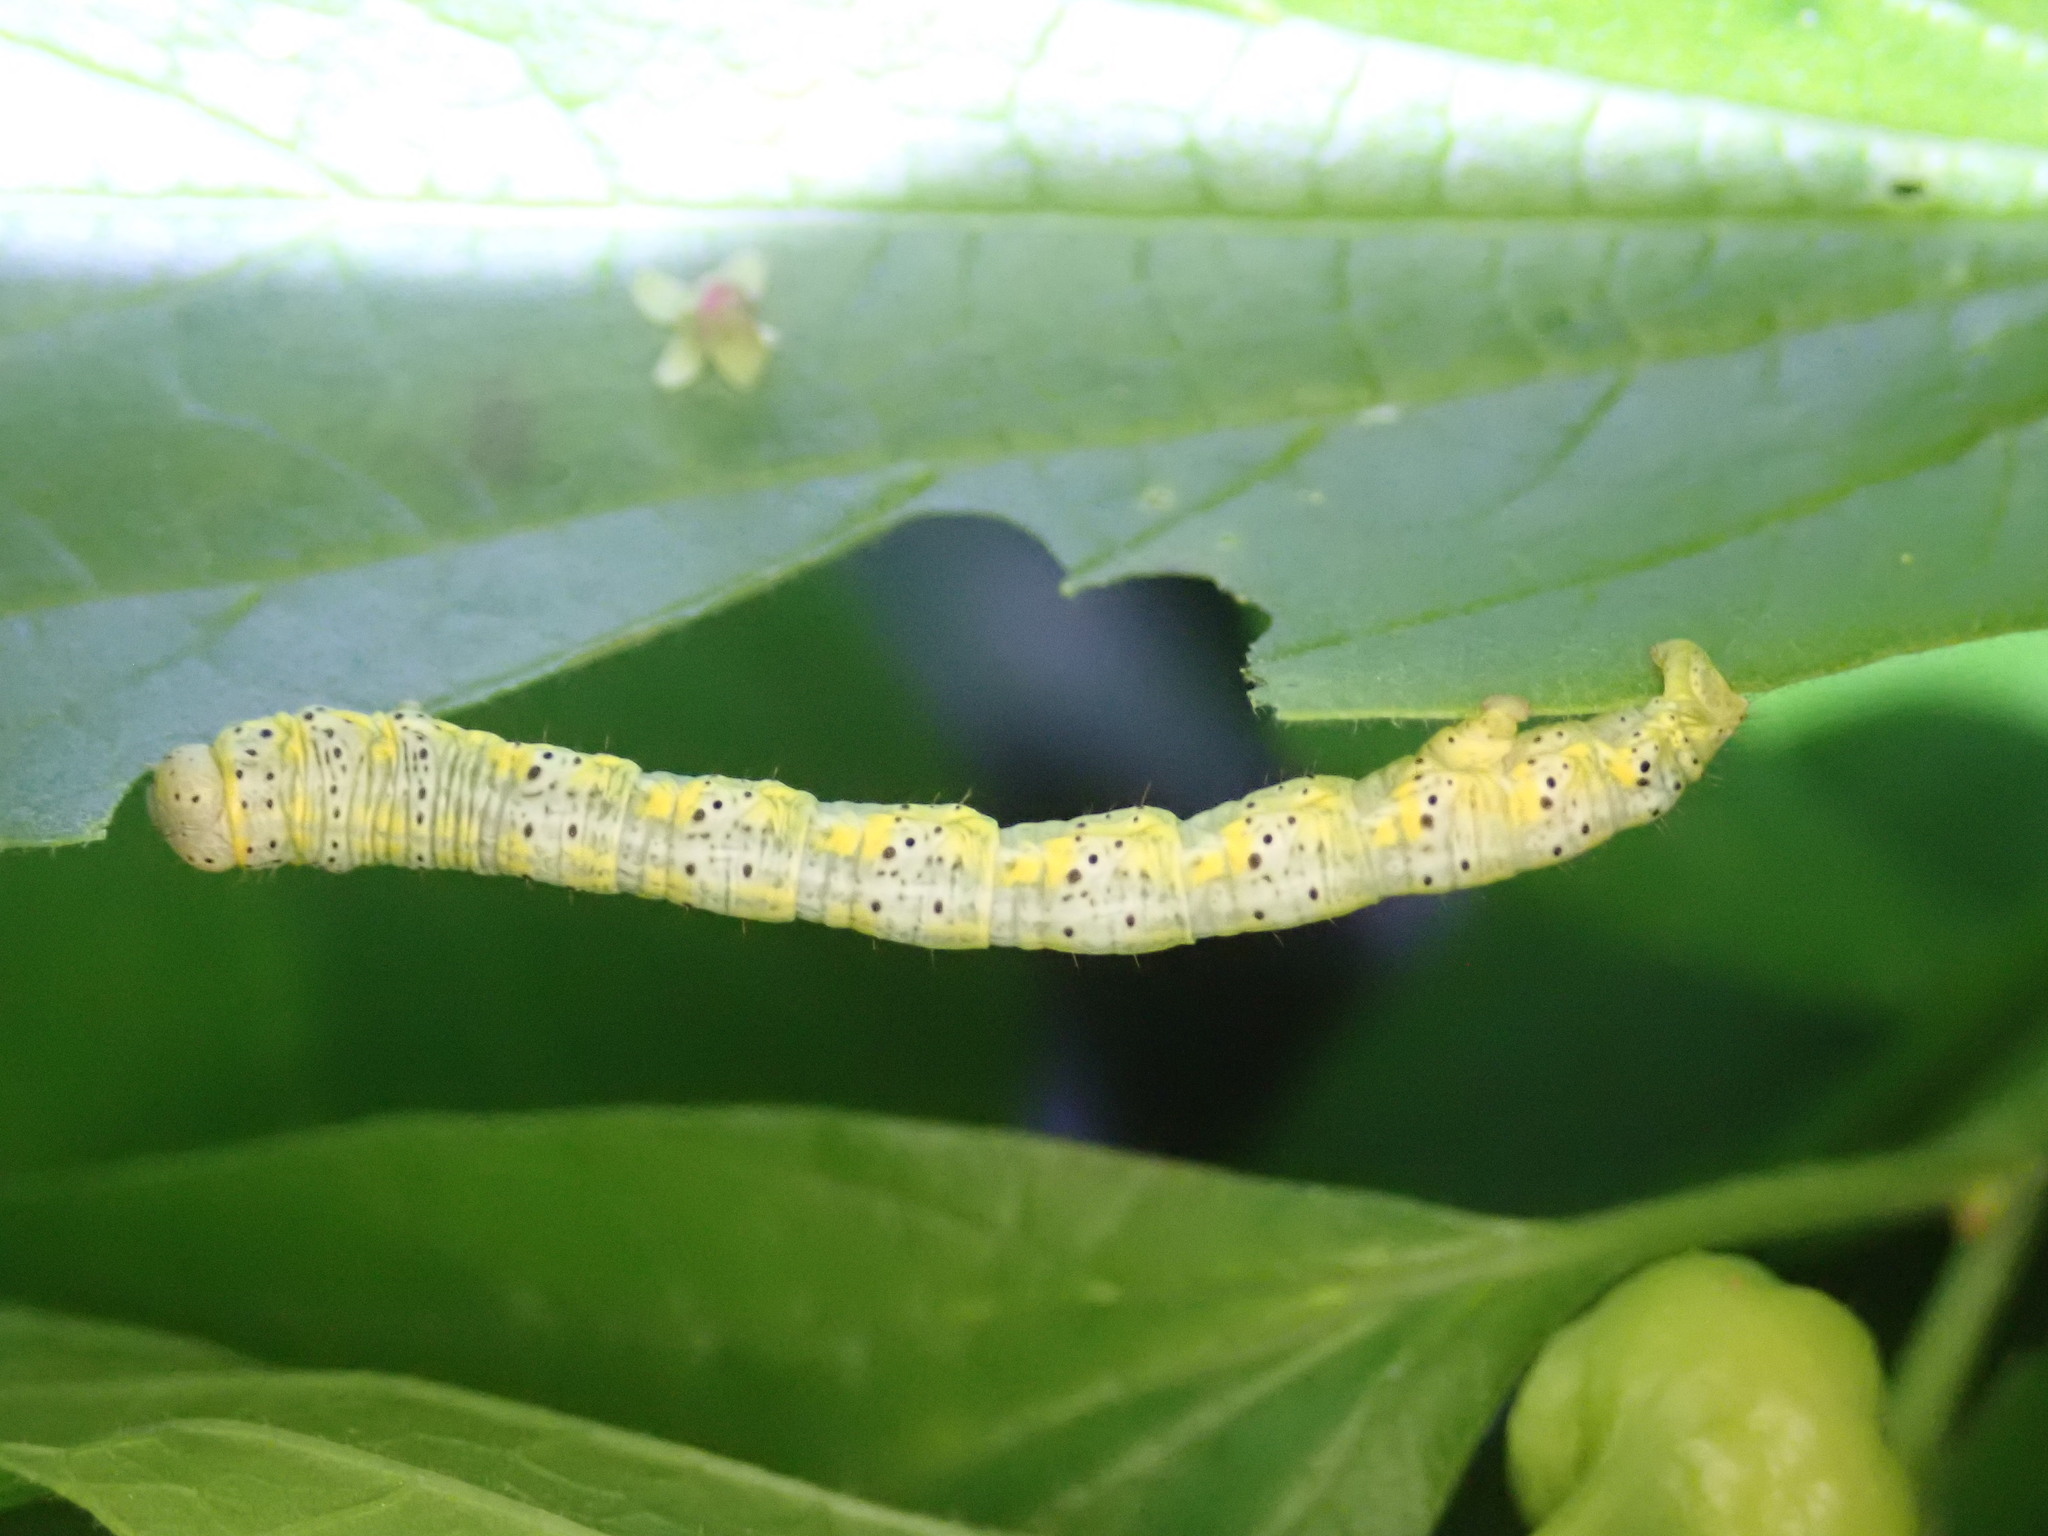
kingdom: Animalia
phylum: Arthropoda
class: Insecta
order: Lepidoptera
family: Geometridae
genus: Isturgia
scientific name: Isturgia dislocaria
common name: Pale-viened enconista
